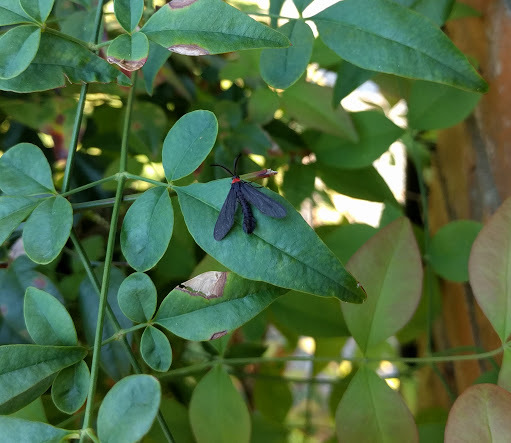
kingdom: Animalia
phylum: Arthropoda
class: Insecta
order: Lepidoptera
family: Zygaenidae
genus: Harrisina
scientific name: Harrisina americana
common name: Grapeleaf skeletonizer moth
